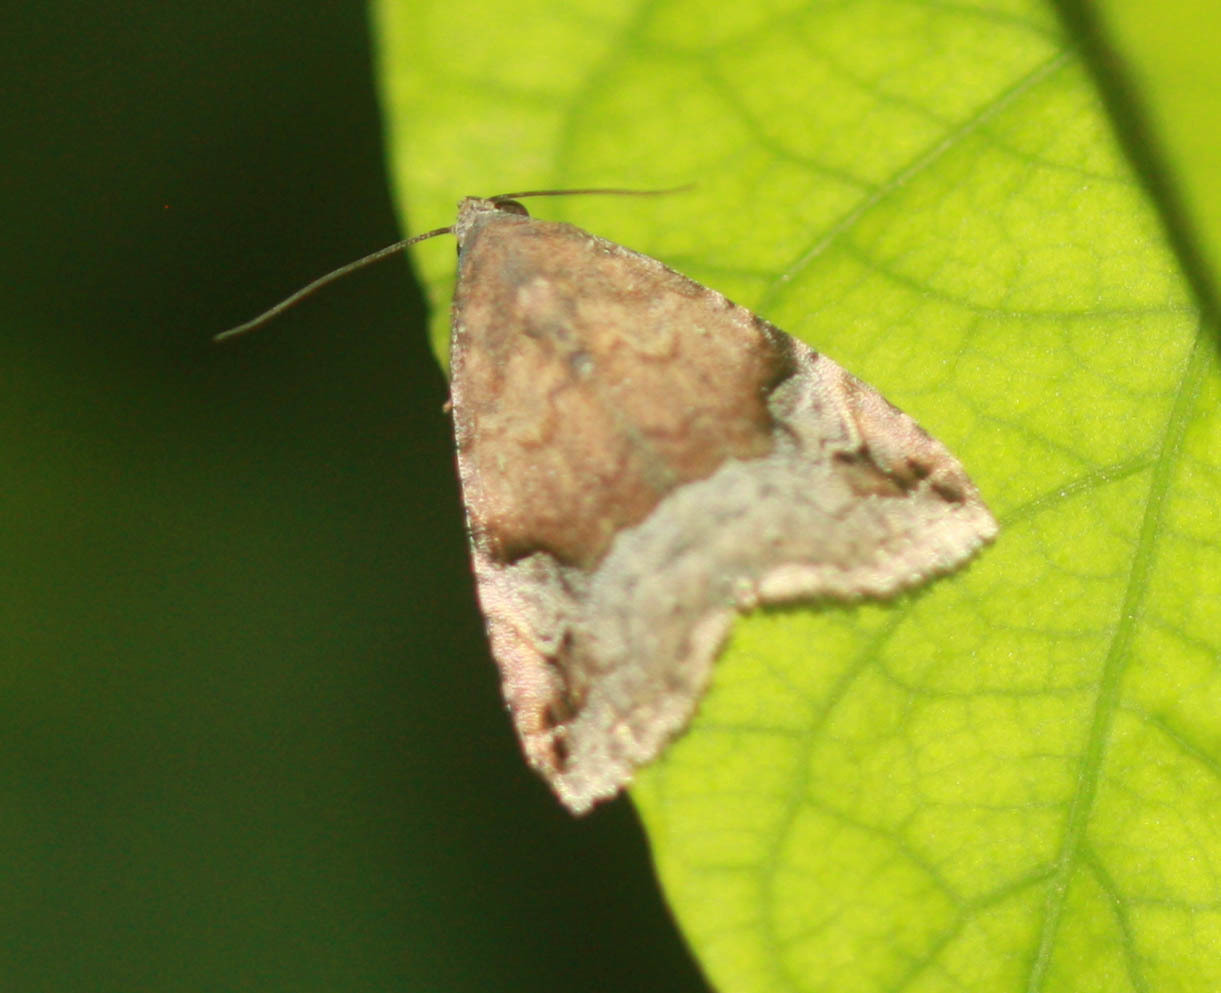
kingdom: Animalia
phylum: Arthropoda
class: Insecta
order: Lepidoptera
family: Noctuidae
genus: Ozarba
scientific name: Ozarba aeria
